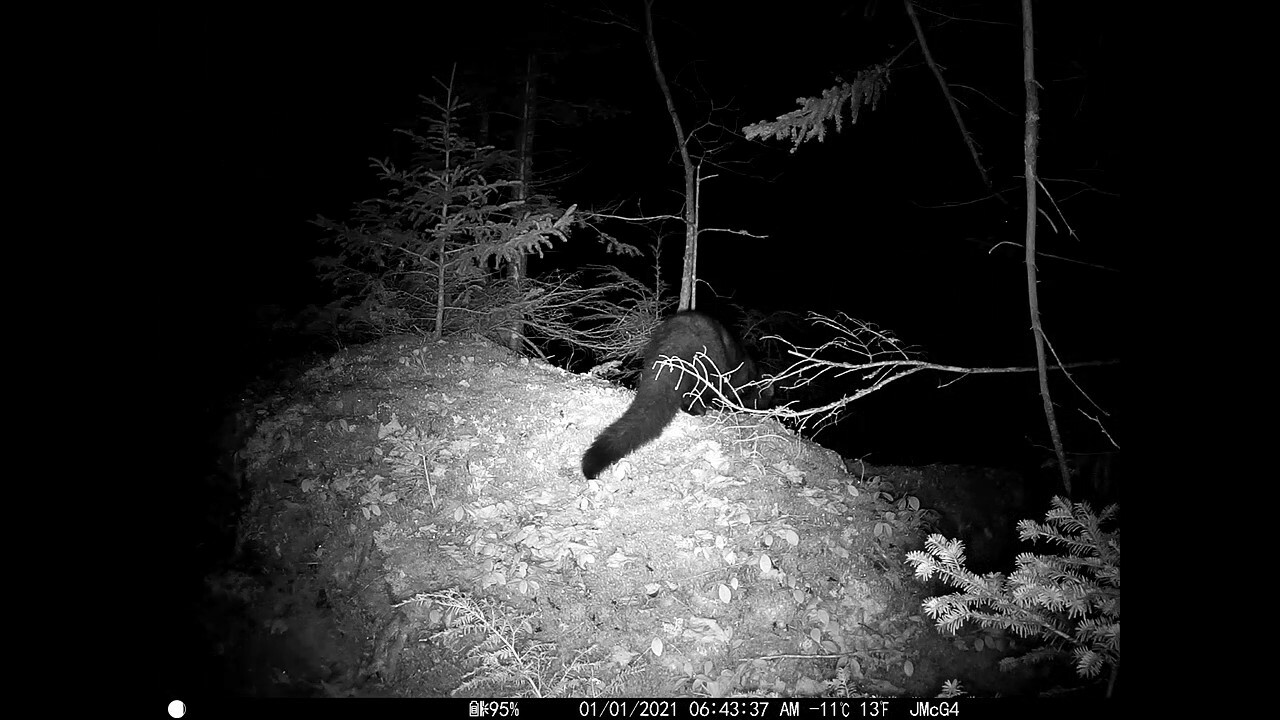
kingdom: Animalia
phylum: Chordata
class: Mammalia
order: Carnivora
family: Mustelidae
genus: Pekania
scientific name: Pekania pennanti
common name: Fisher
